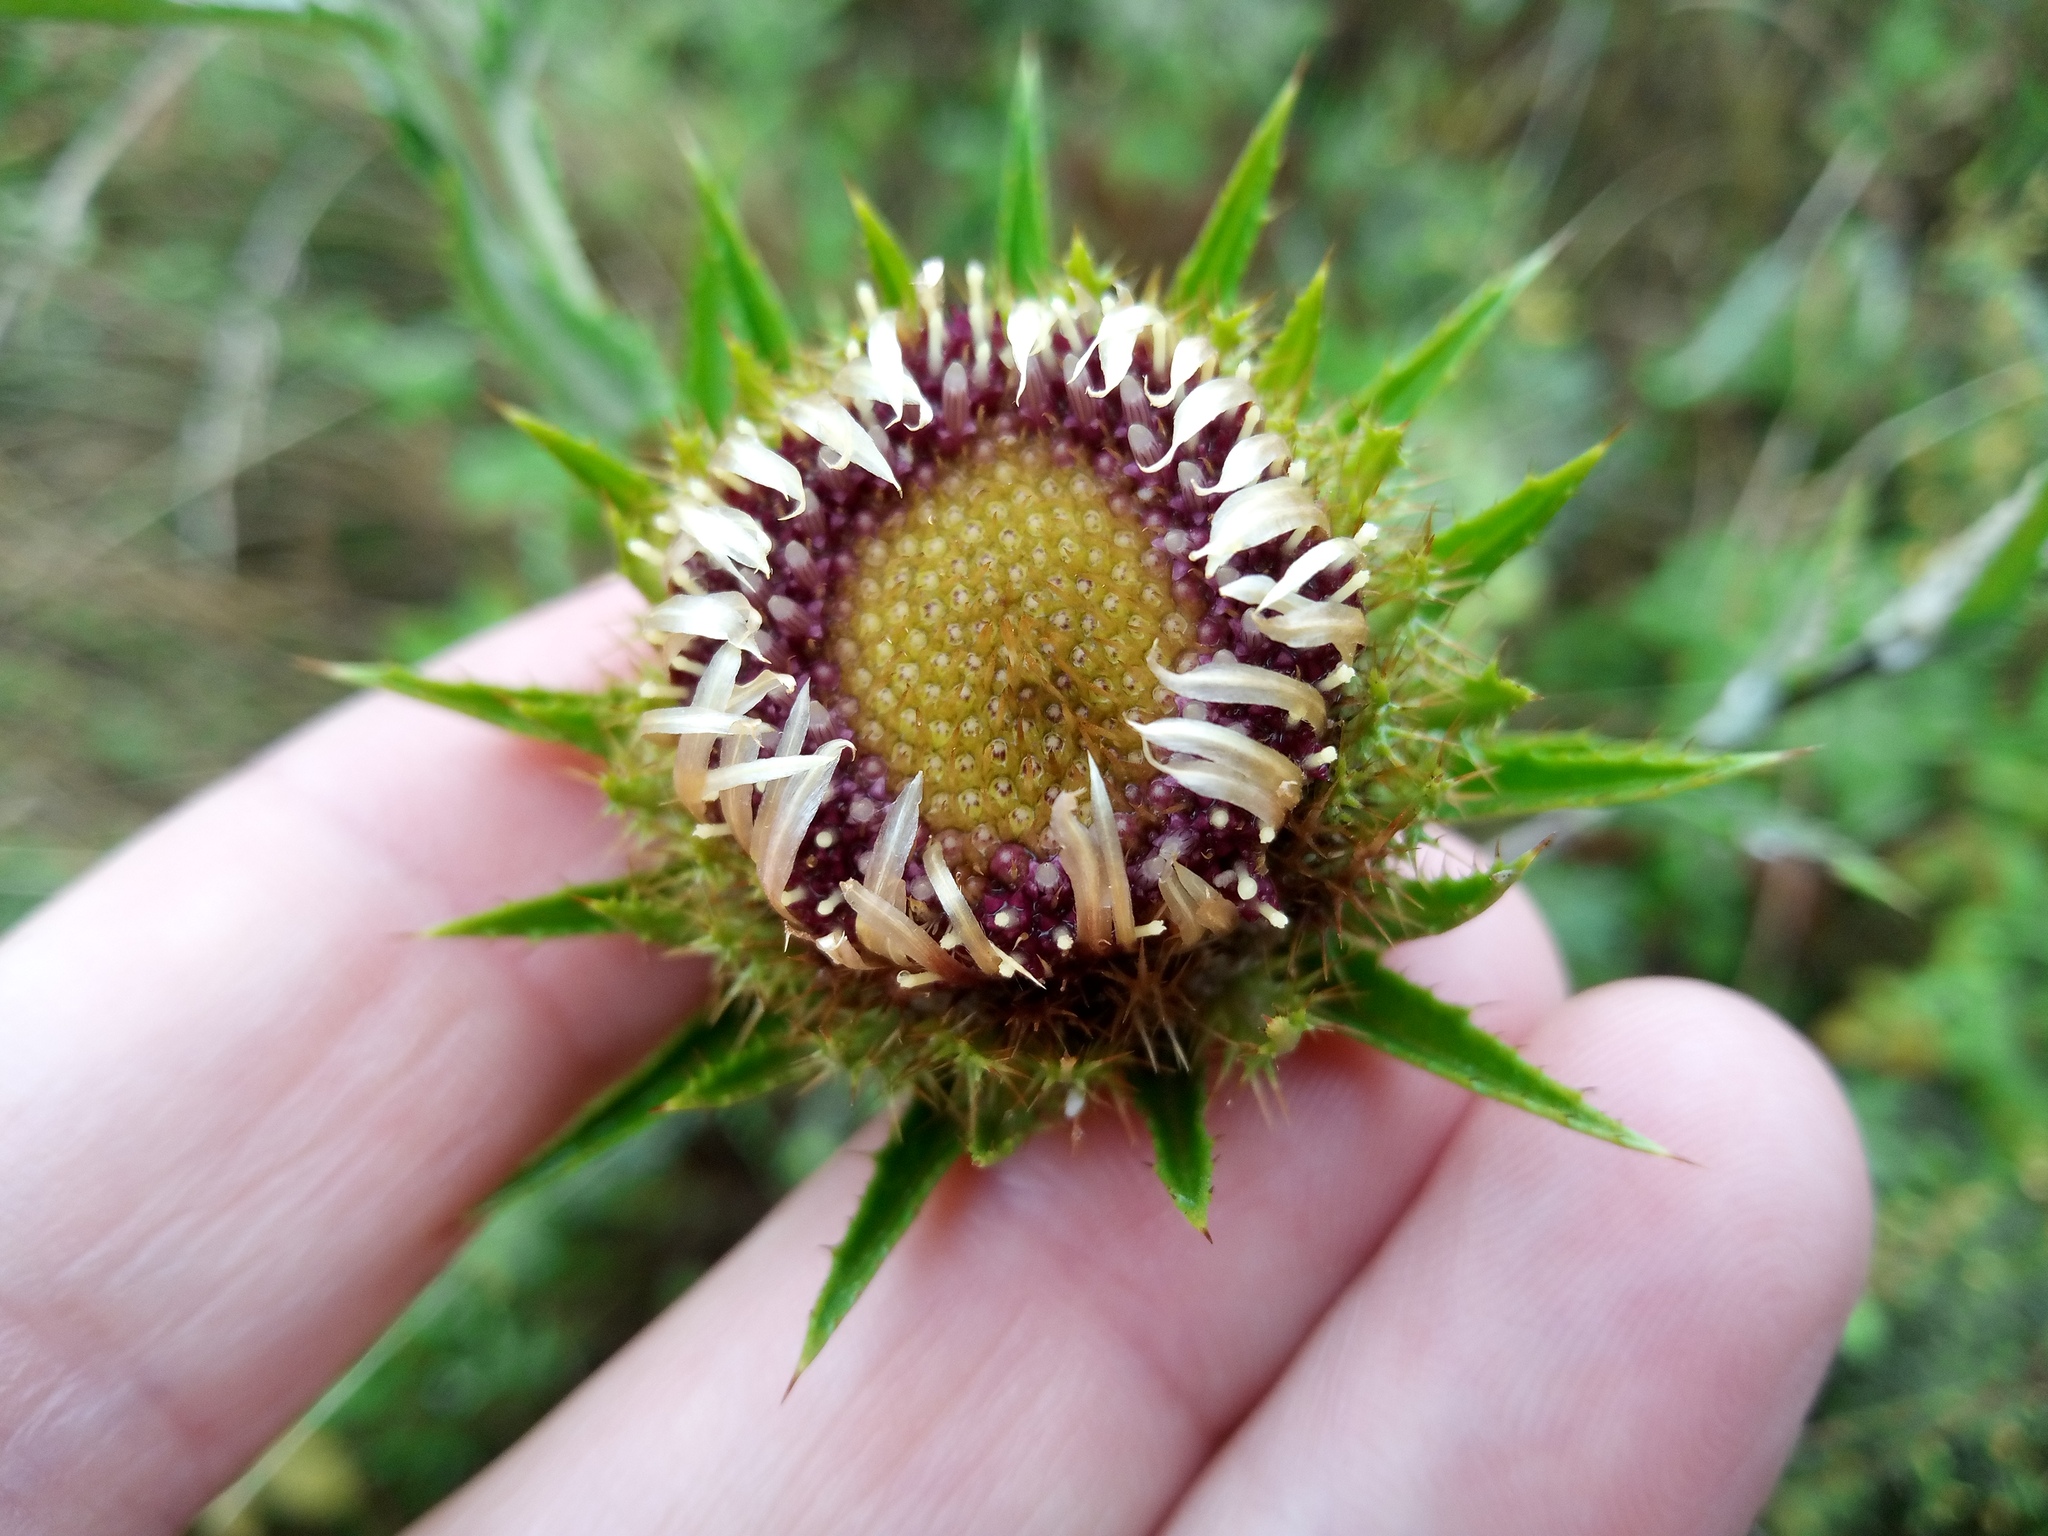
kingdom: Plantae
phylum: Tracheophyta
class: Magnoliopsida
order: Asterales
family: Asteraceae
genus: Carlina
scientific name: Carlina biebersteinii
